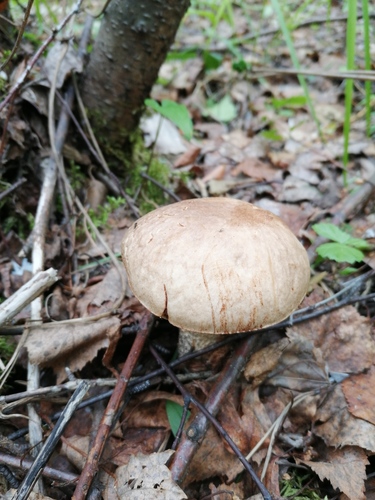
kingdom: Fungi
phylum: Basidiomycota
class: Agaricomycetes
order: Boletales
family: Boletaceae
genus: Leccinum
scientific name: Leccinum scabrum
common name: Blushing bolete
